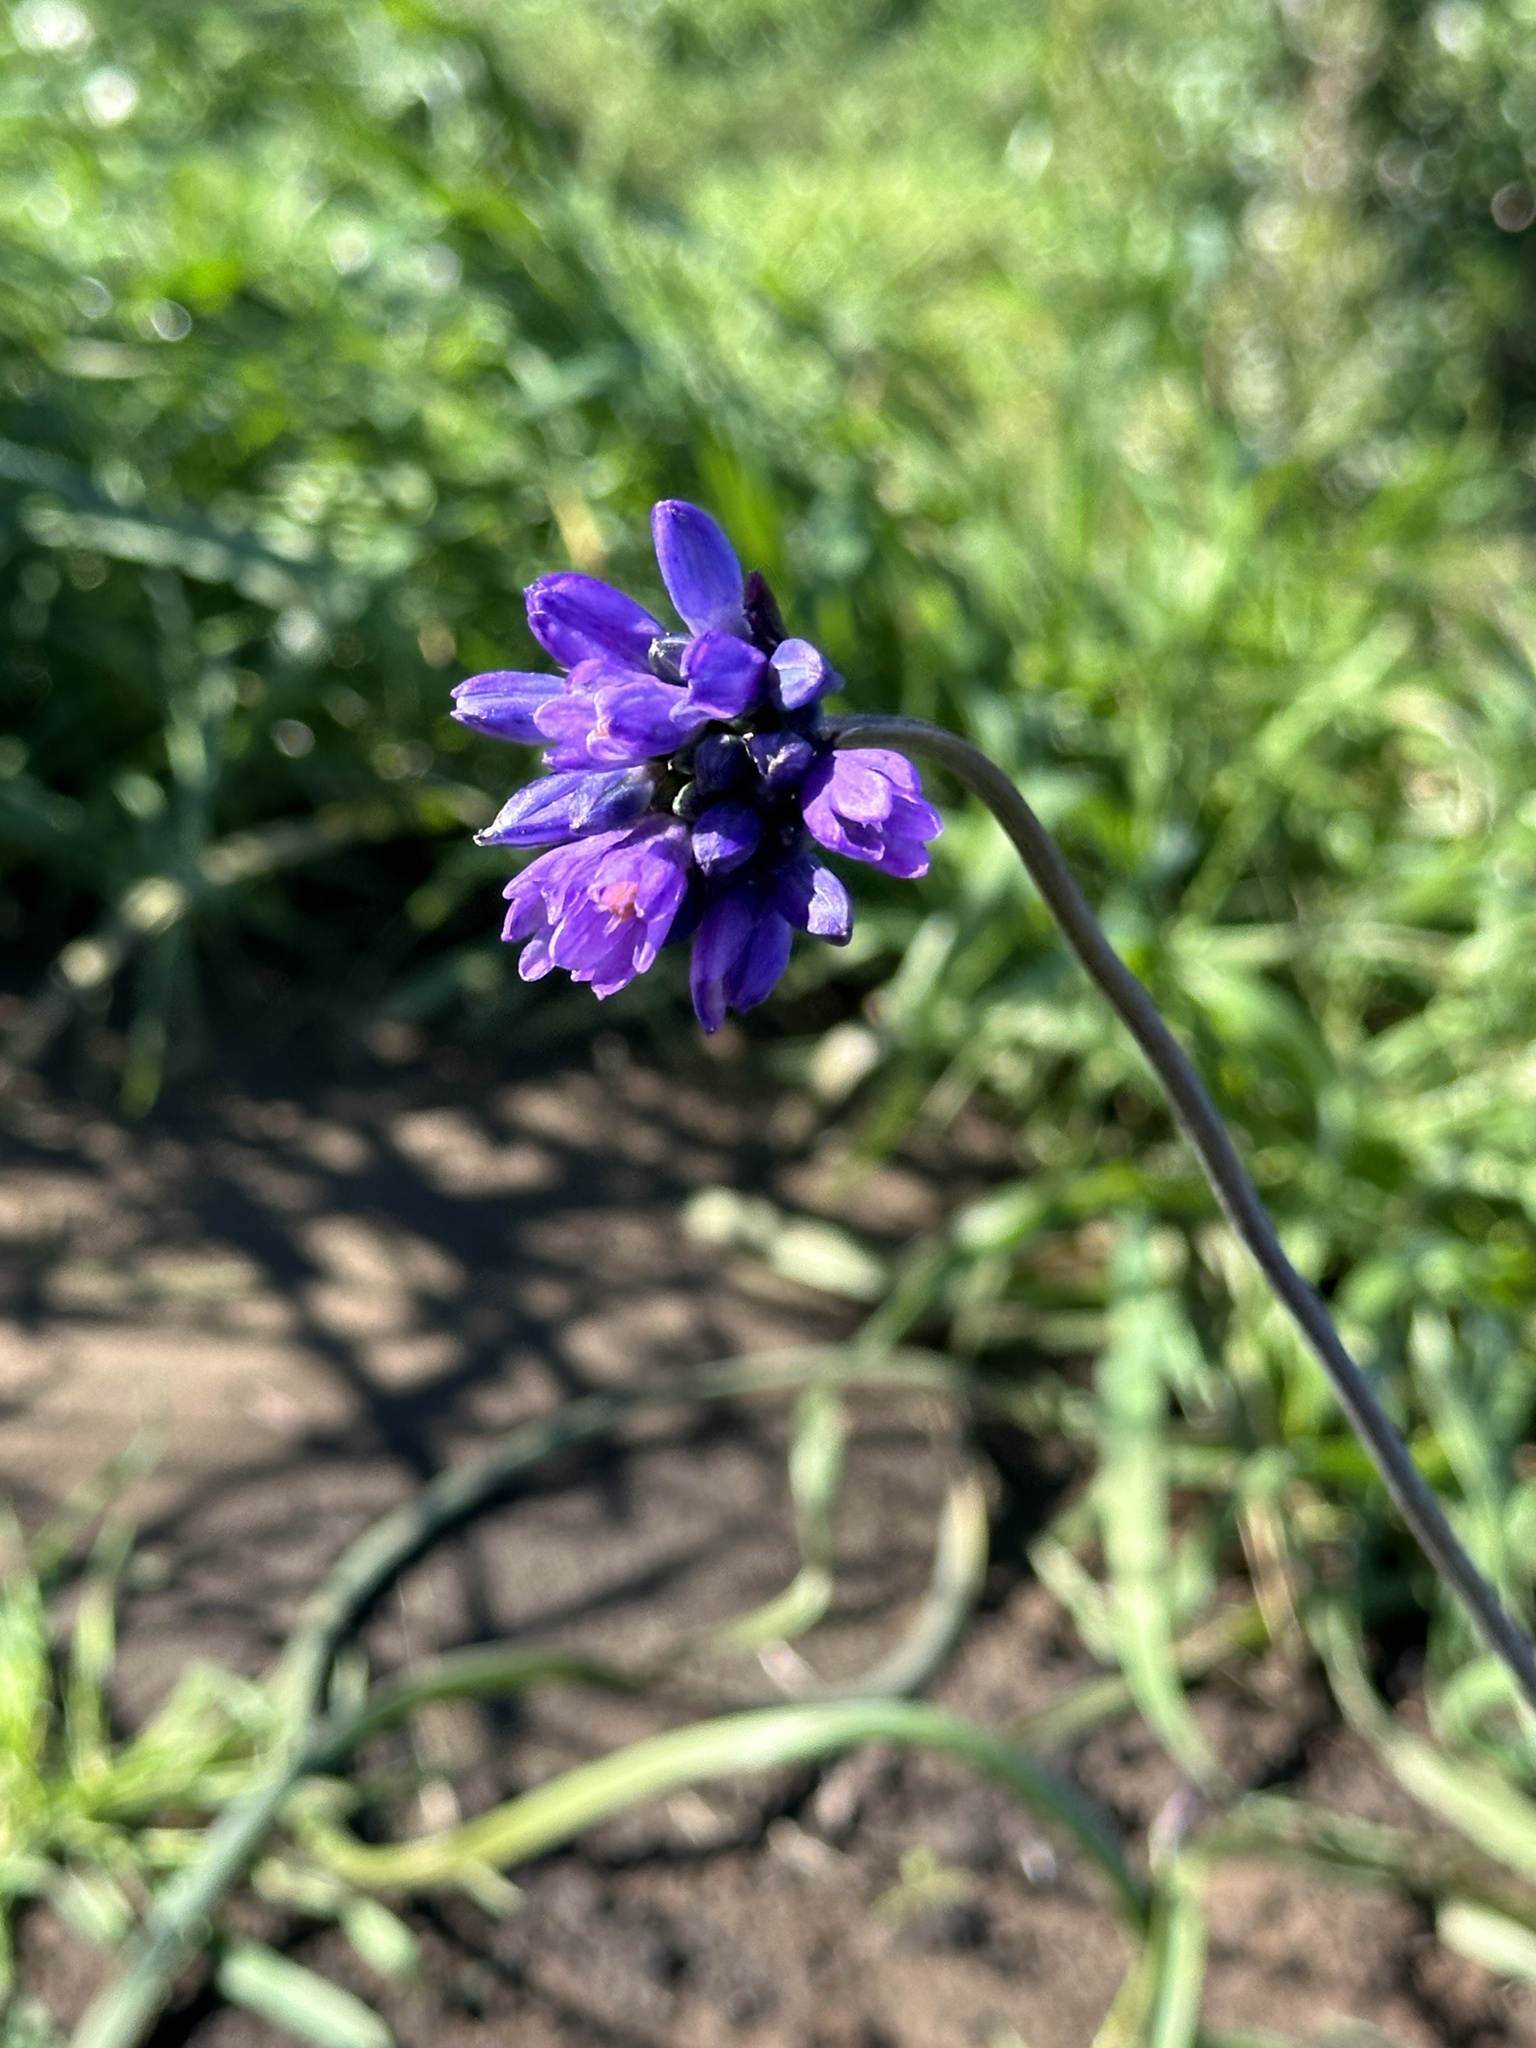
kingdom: Plantae
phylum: Tracheophyta
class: Liliopsida
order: Asparagales
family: Asparagaceae
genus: Dipterostemon
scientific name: Dipterostemon capitatus
